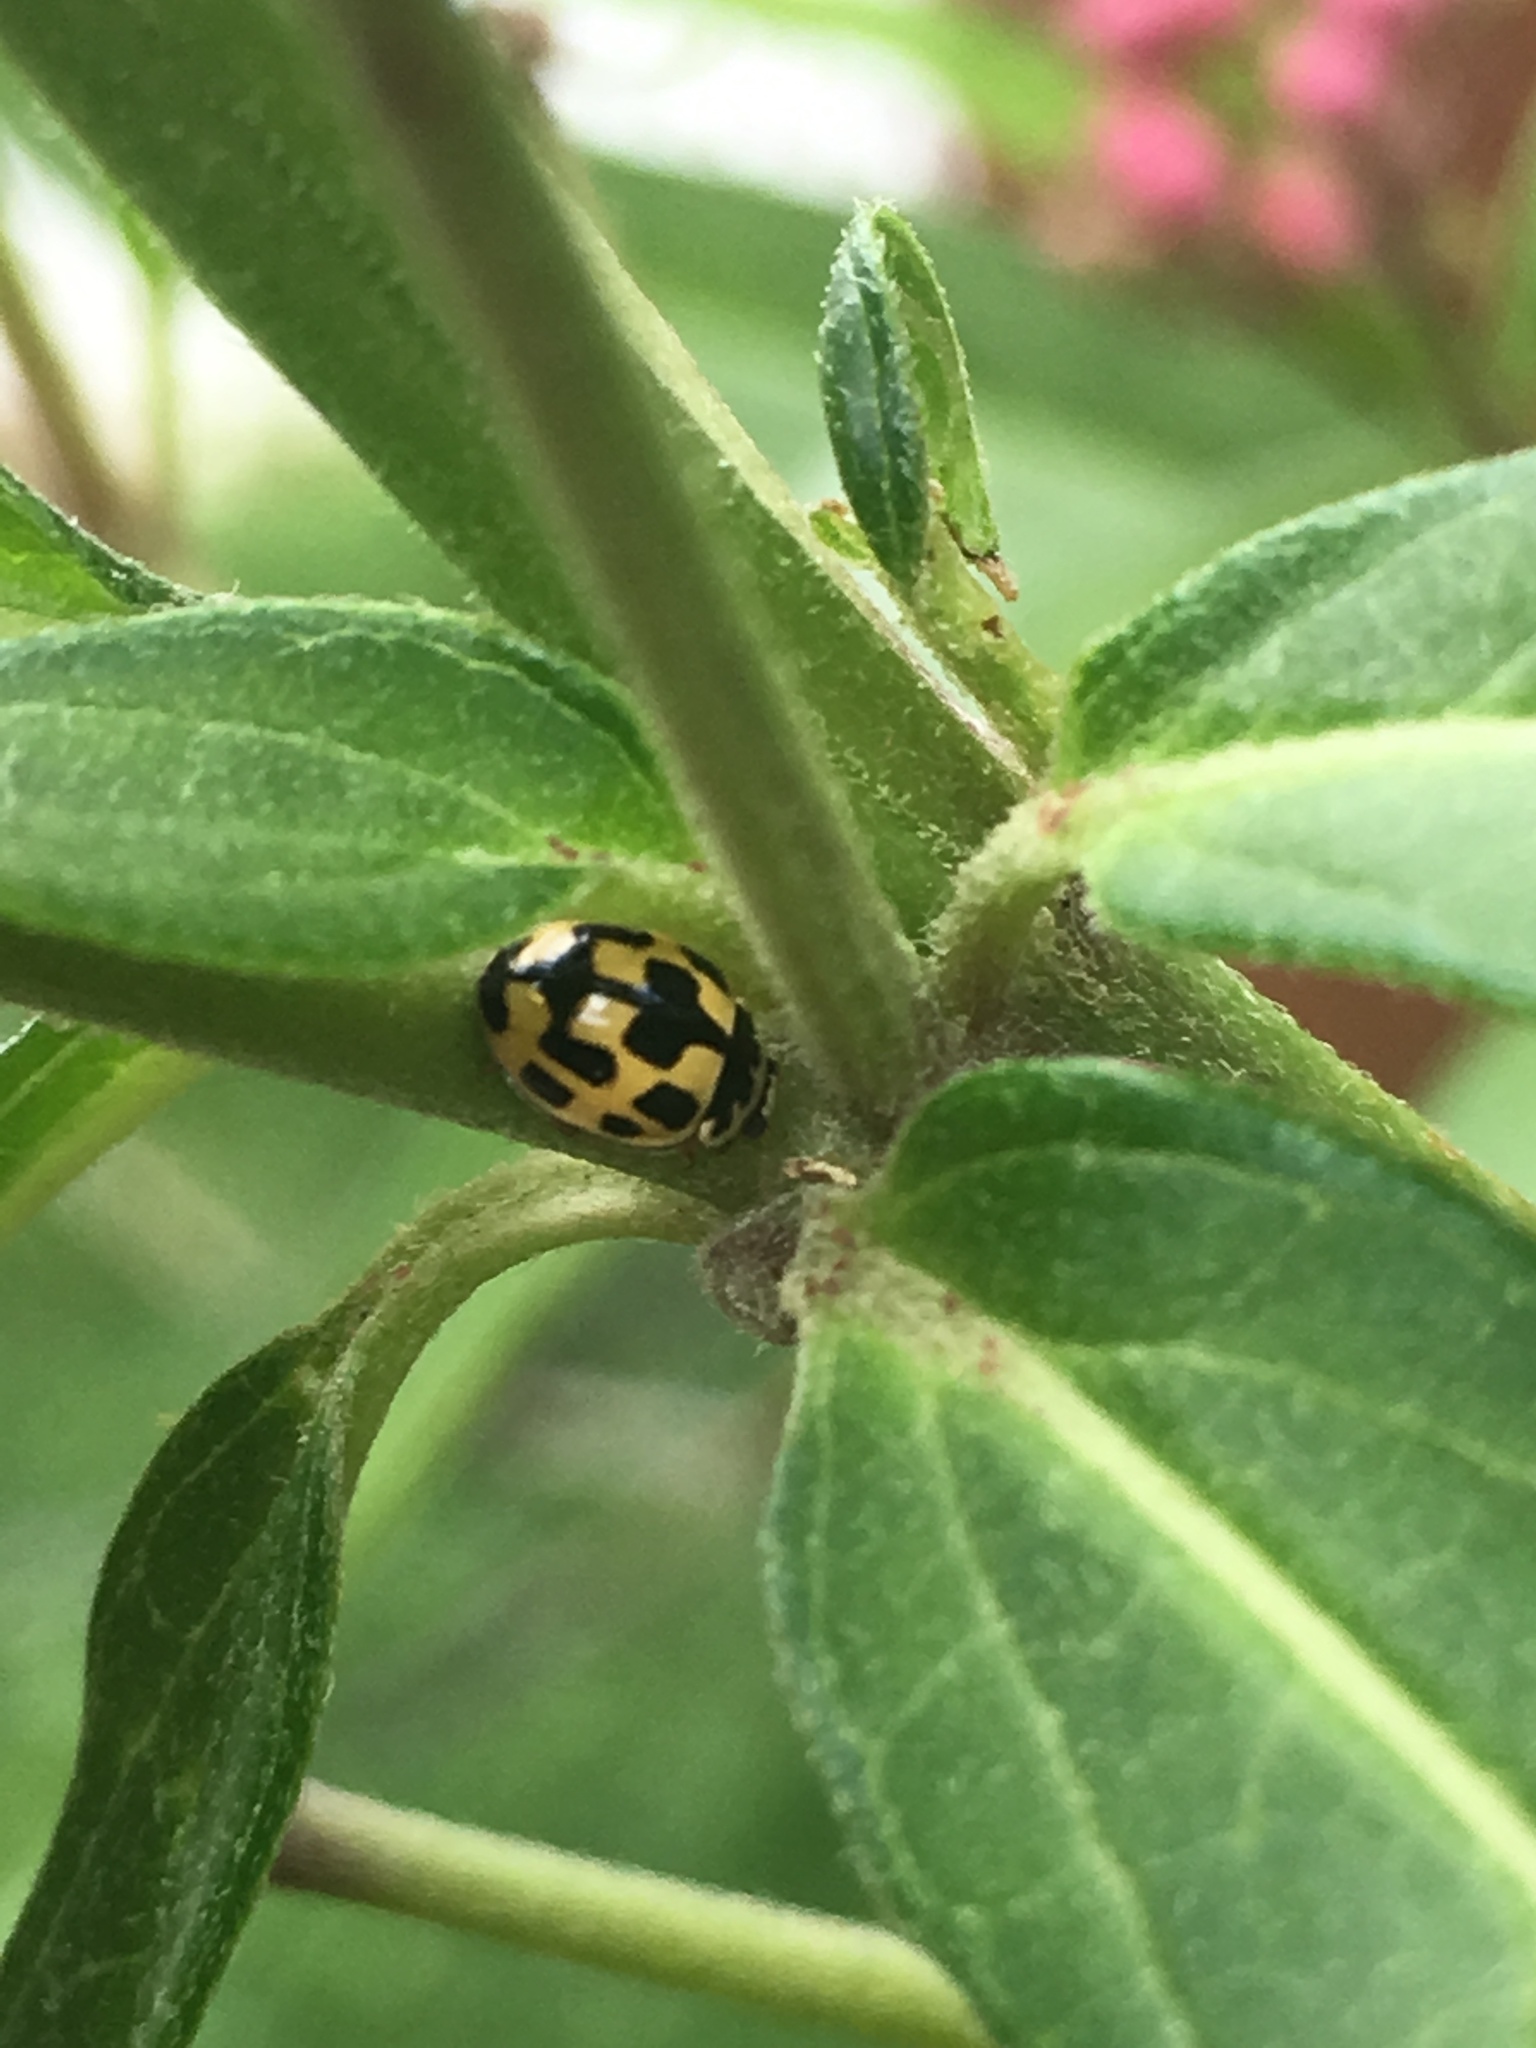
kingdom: Animalia
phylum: Arthropoda
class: Insecta
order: Coleoptera
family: Coccinellidae
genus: Propylaea
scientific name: Propylaea quatuordecimpunctata
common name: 14-spotted ladybird beetle
